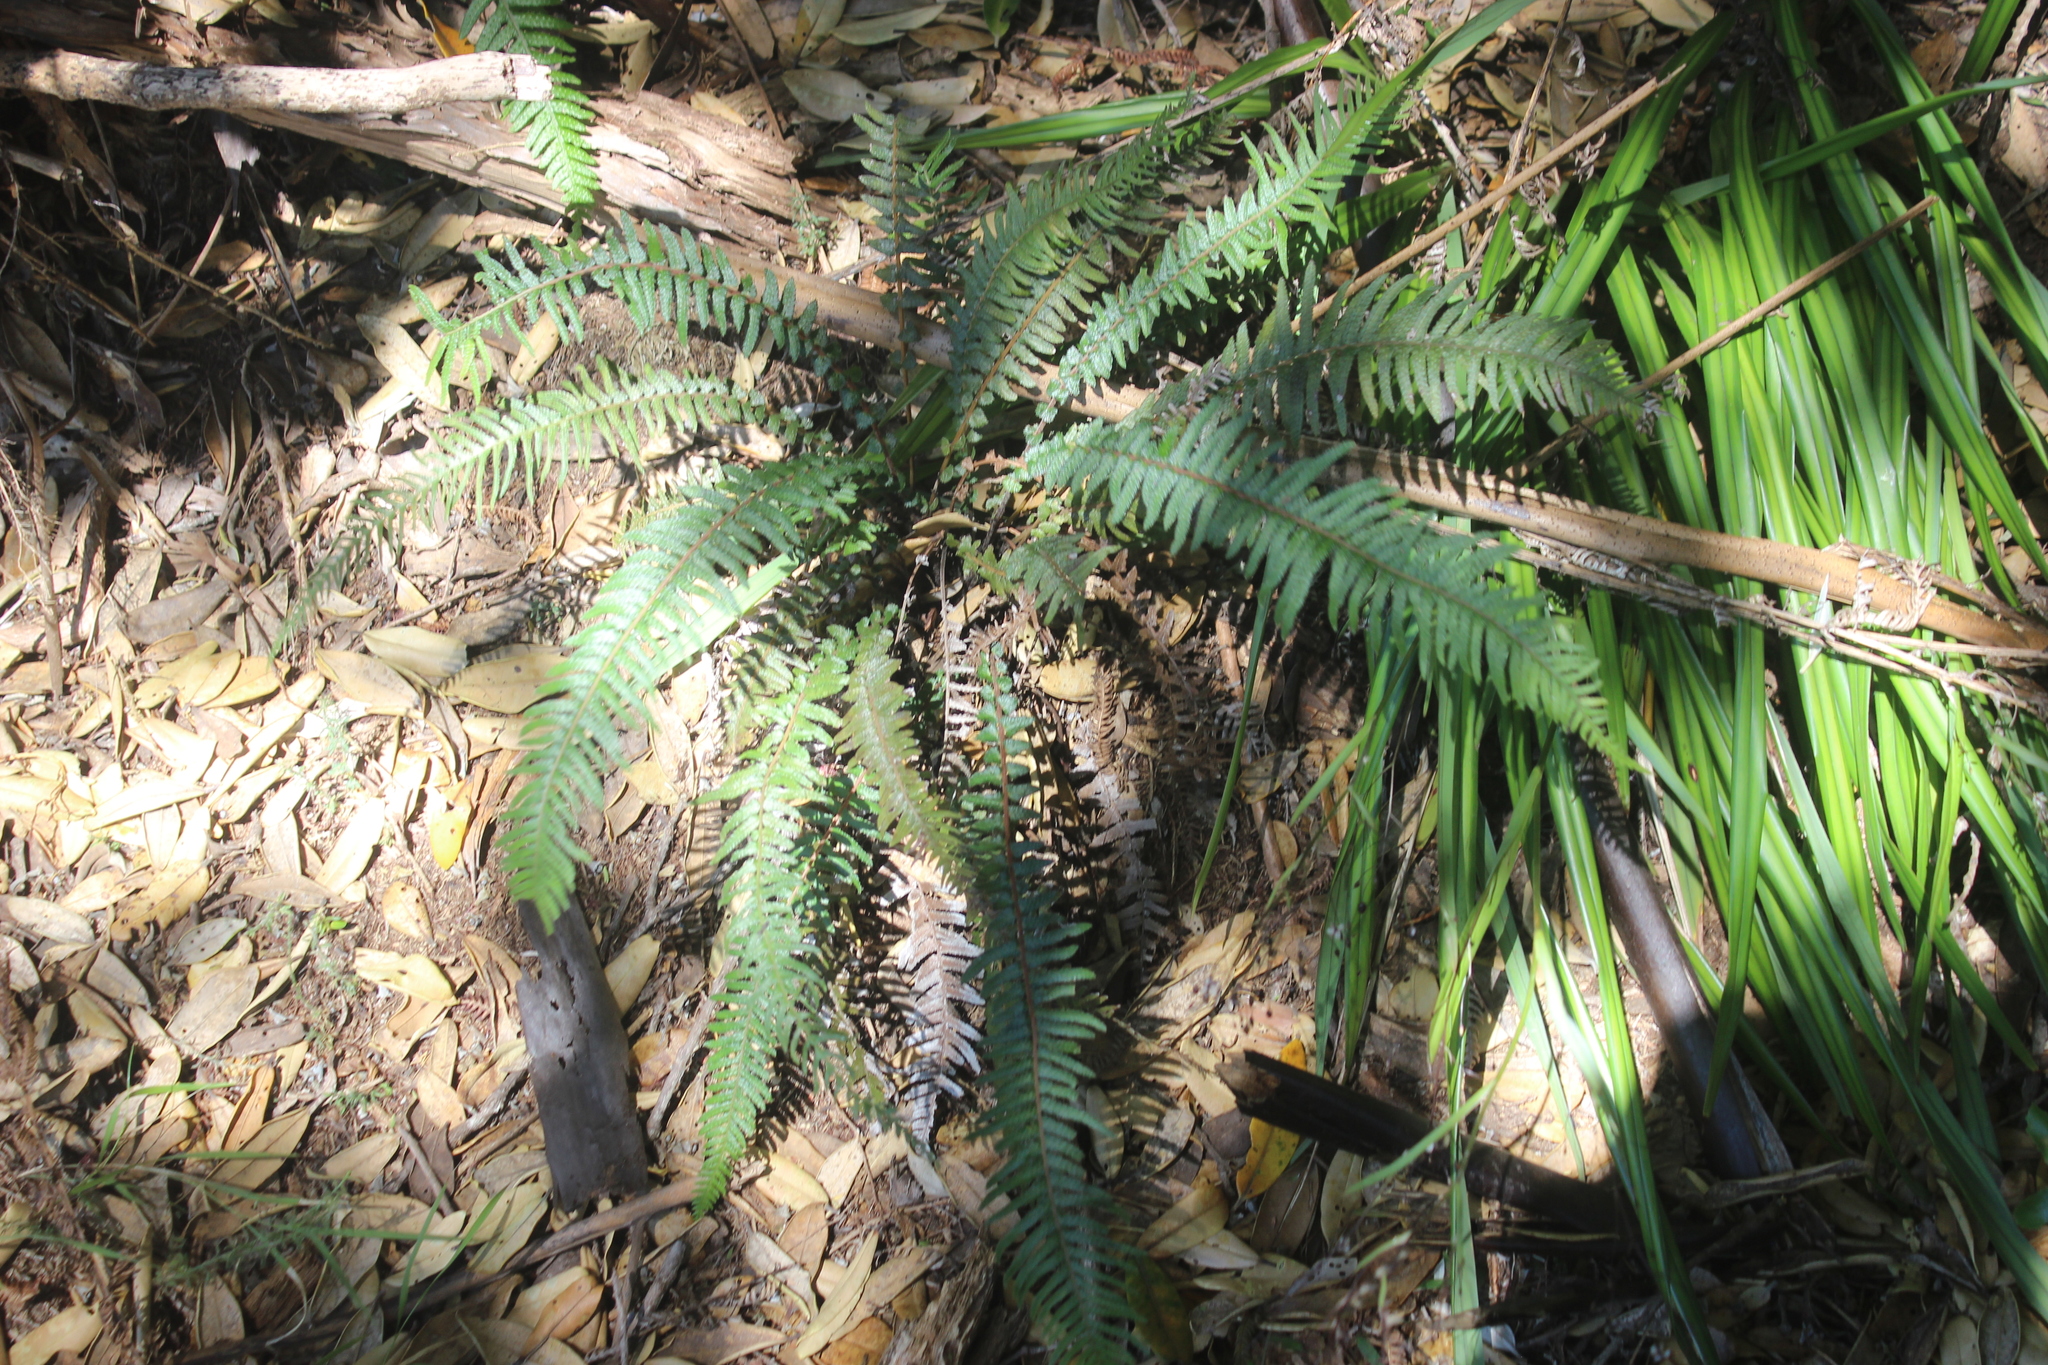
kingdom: Plantae
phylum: Tracheophyta
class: Polypodiopsida
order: Polypodiales
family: Blechnaceae
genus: Doodia
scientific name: Doodia australis
